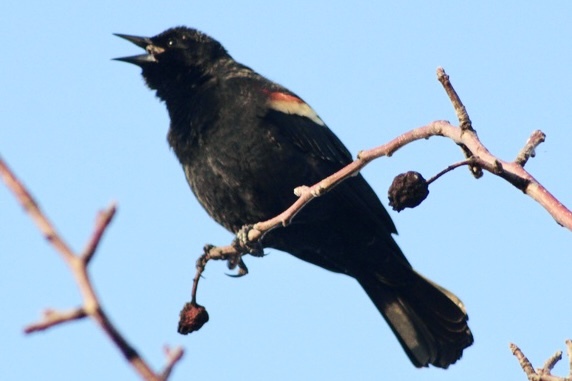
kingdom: Animalia
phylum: Chordata
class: Aves
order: Passeriformes
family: Icteridae
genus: Agelaius
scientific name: Agelaius phoeniceus
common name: Red-winged blackbird
